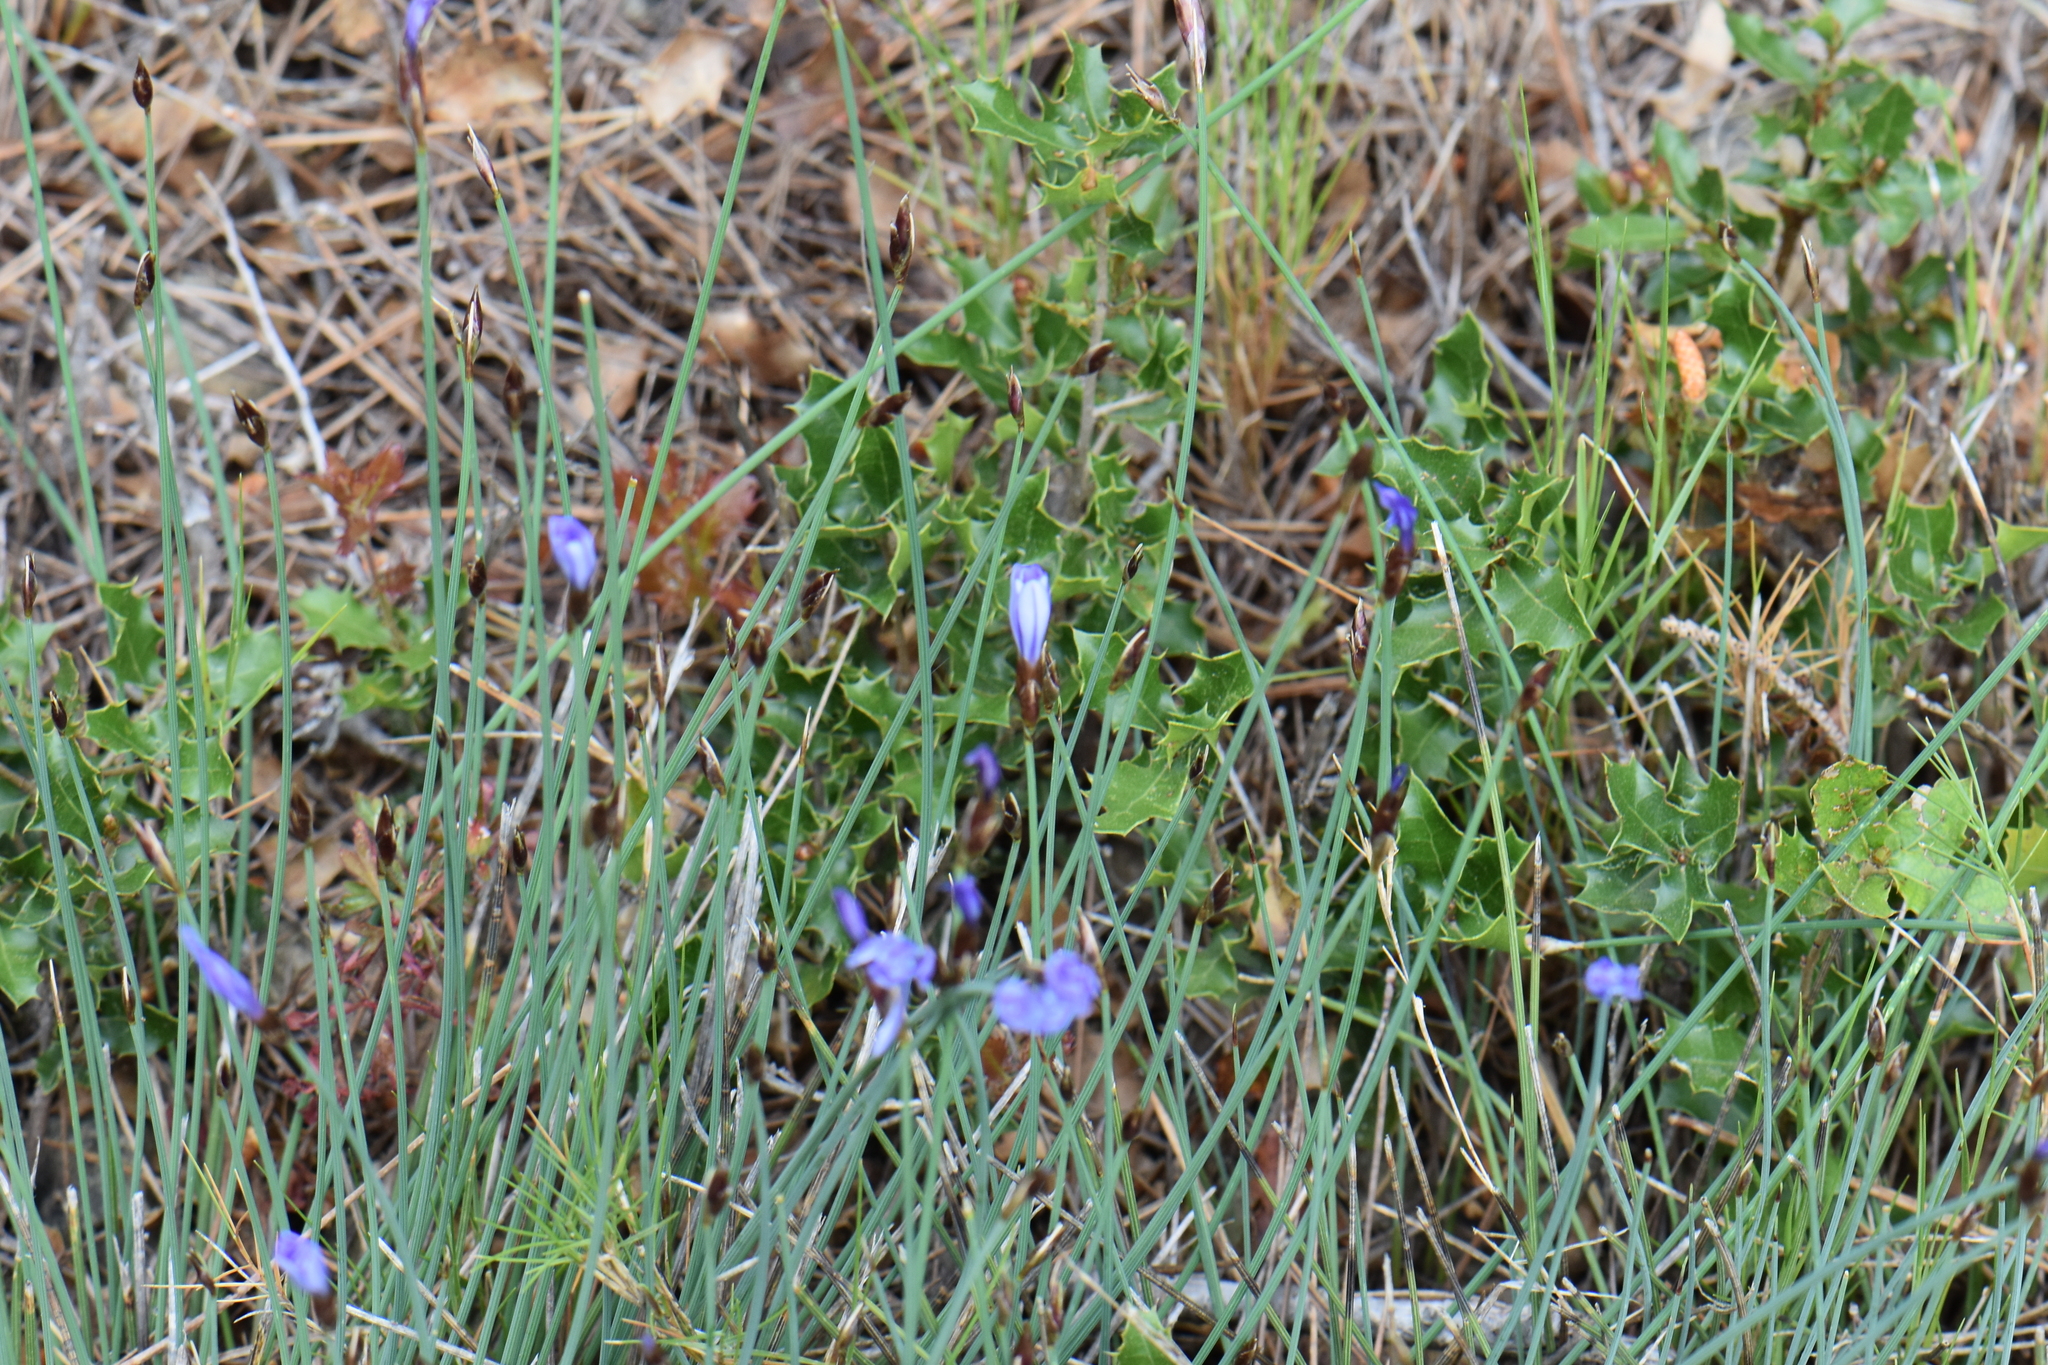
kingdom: Plantae
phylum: Tracheophyta
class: Liliopsida
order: Asparagales
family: Asparagaceae
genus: Aphyllanthes
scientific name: Aphyllanthes monspeliensis
